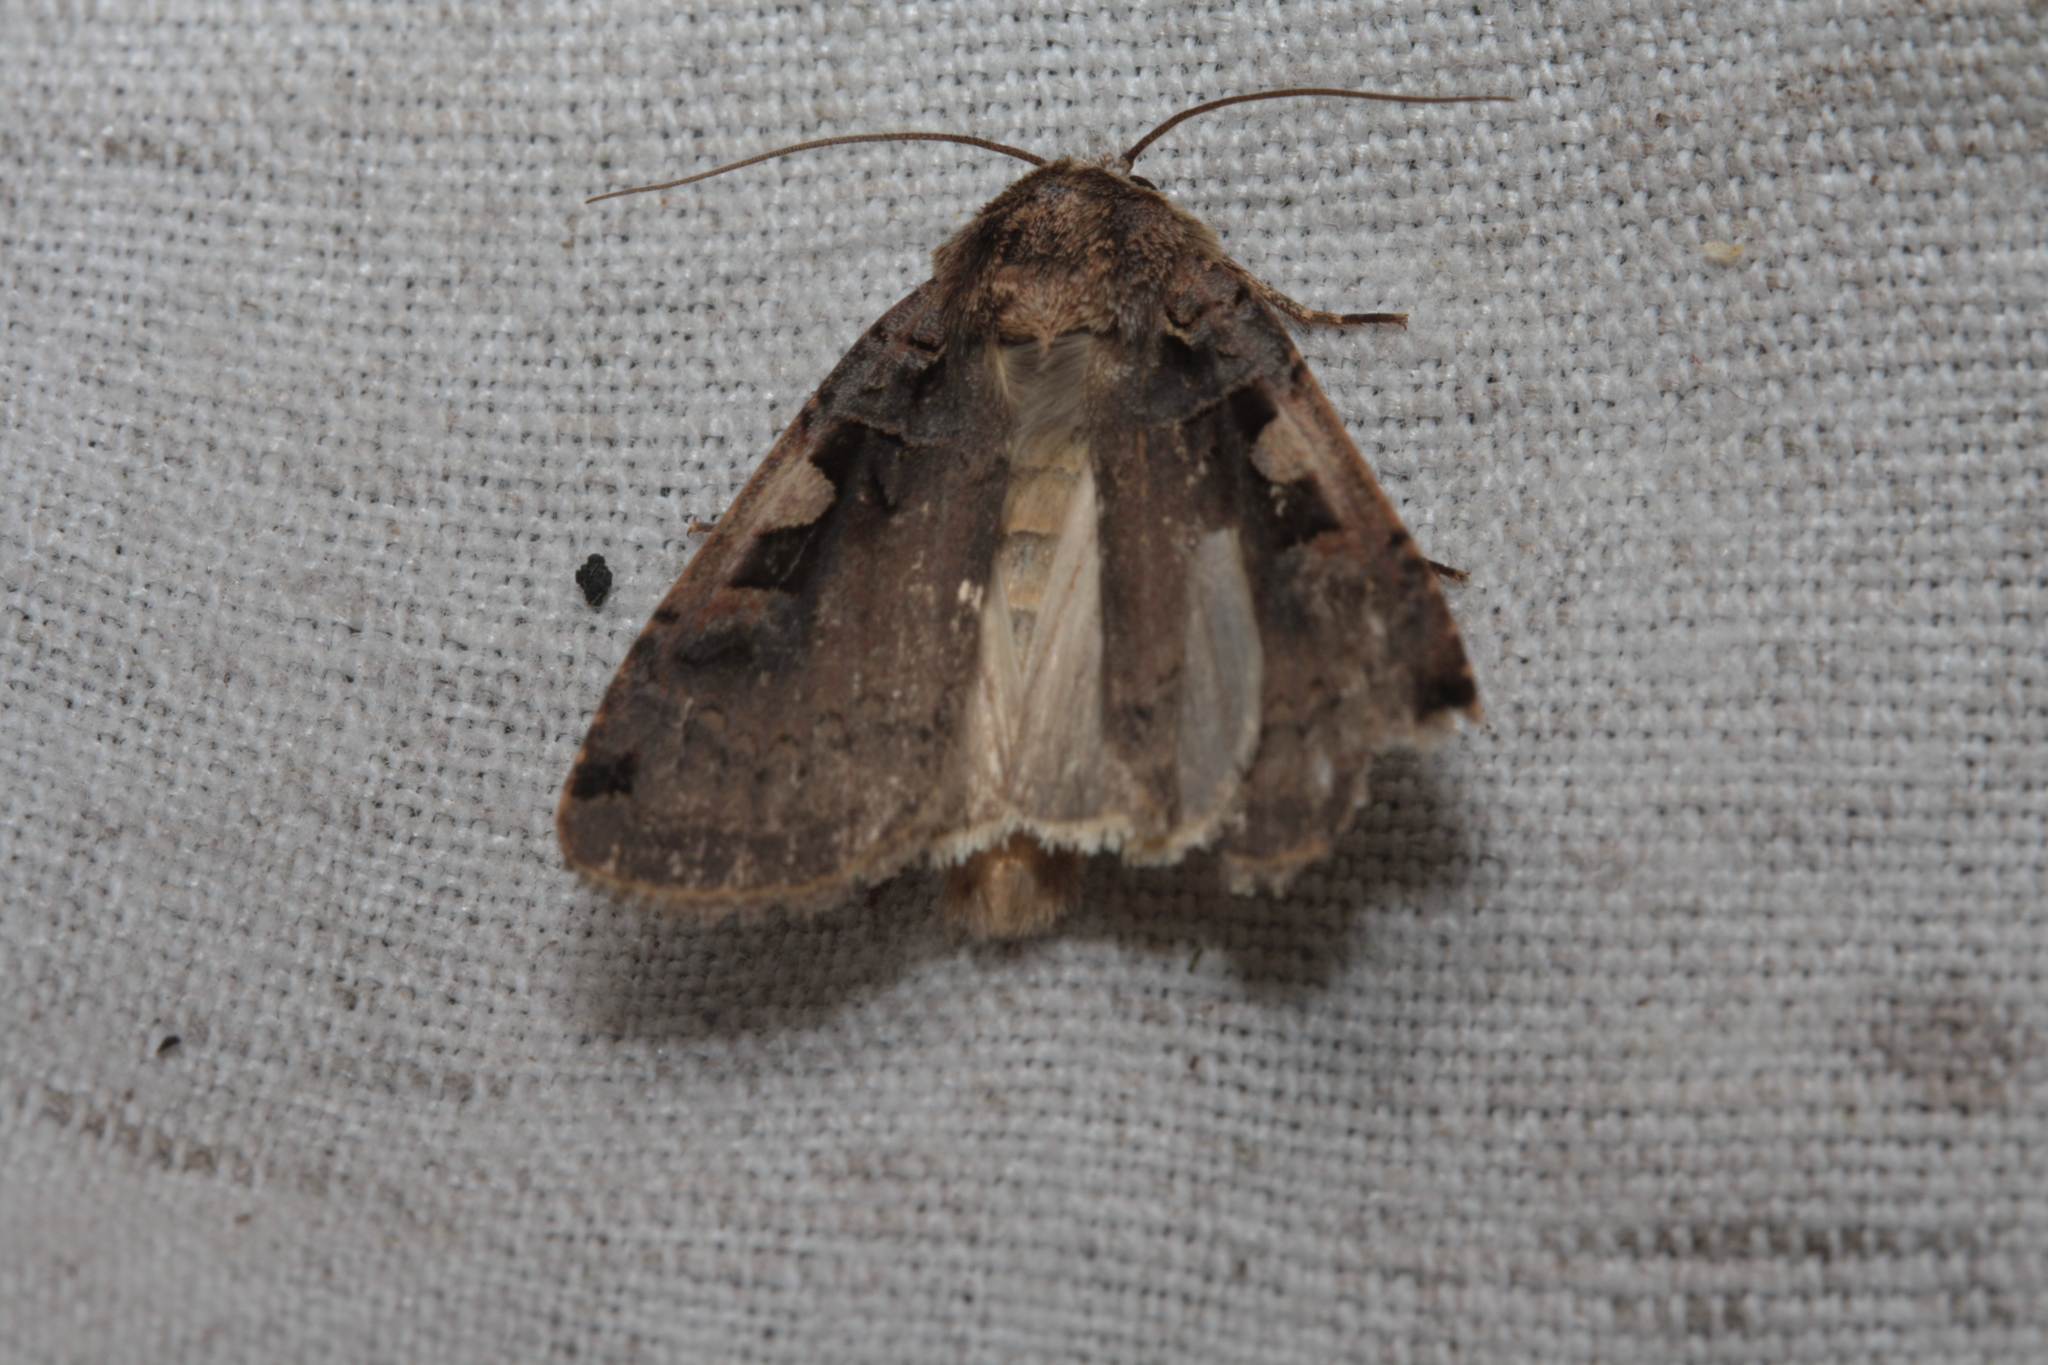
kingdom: Animalia
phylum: Arthropoda
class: Insecta
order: Lepidoptera
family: Noctuidae
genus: Xestia
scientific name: Xestia c-nigrum
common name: Setaceous hebrew character
